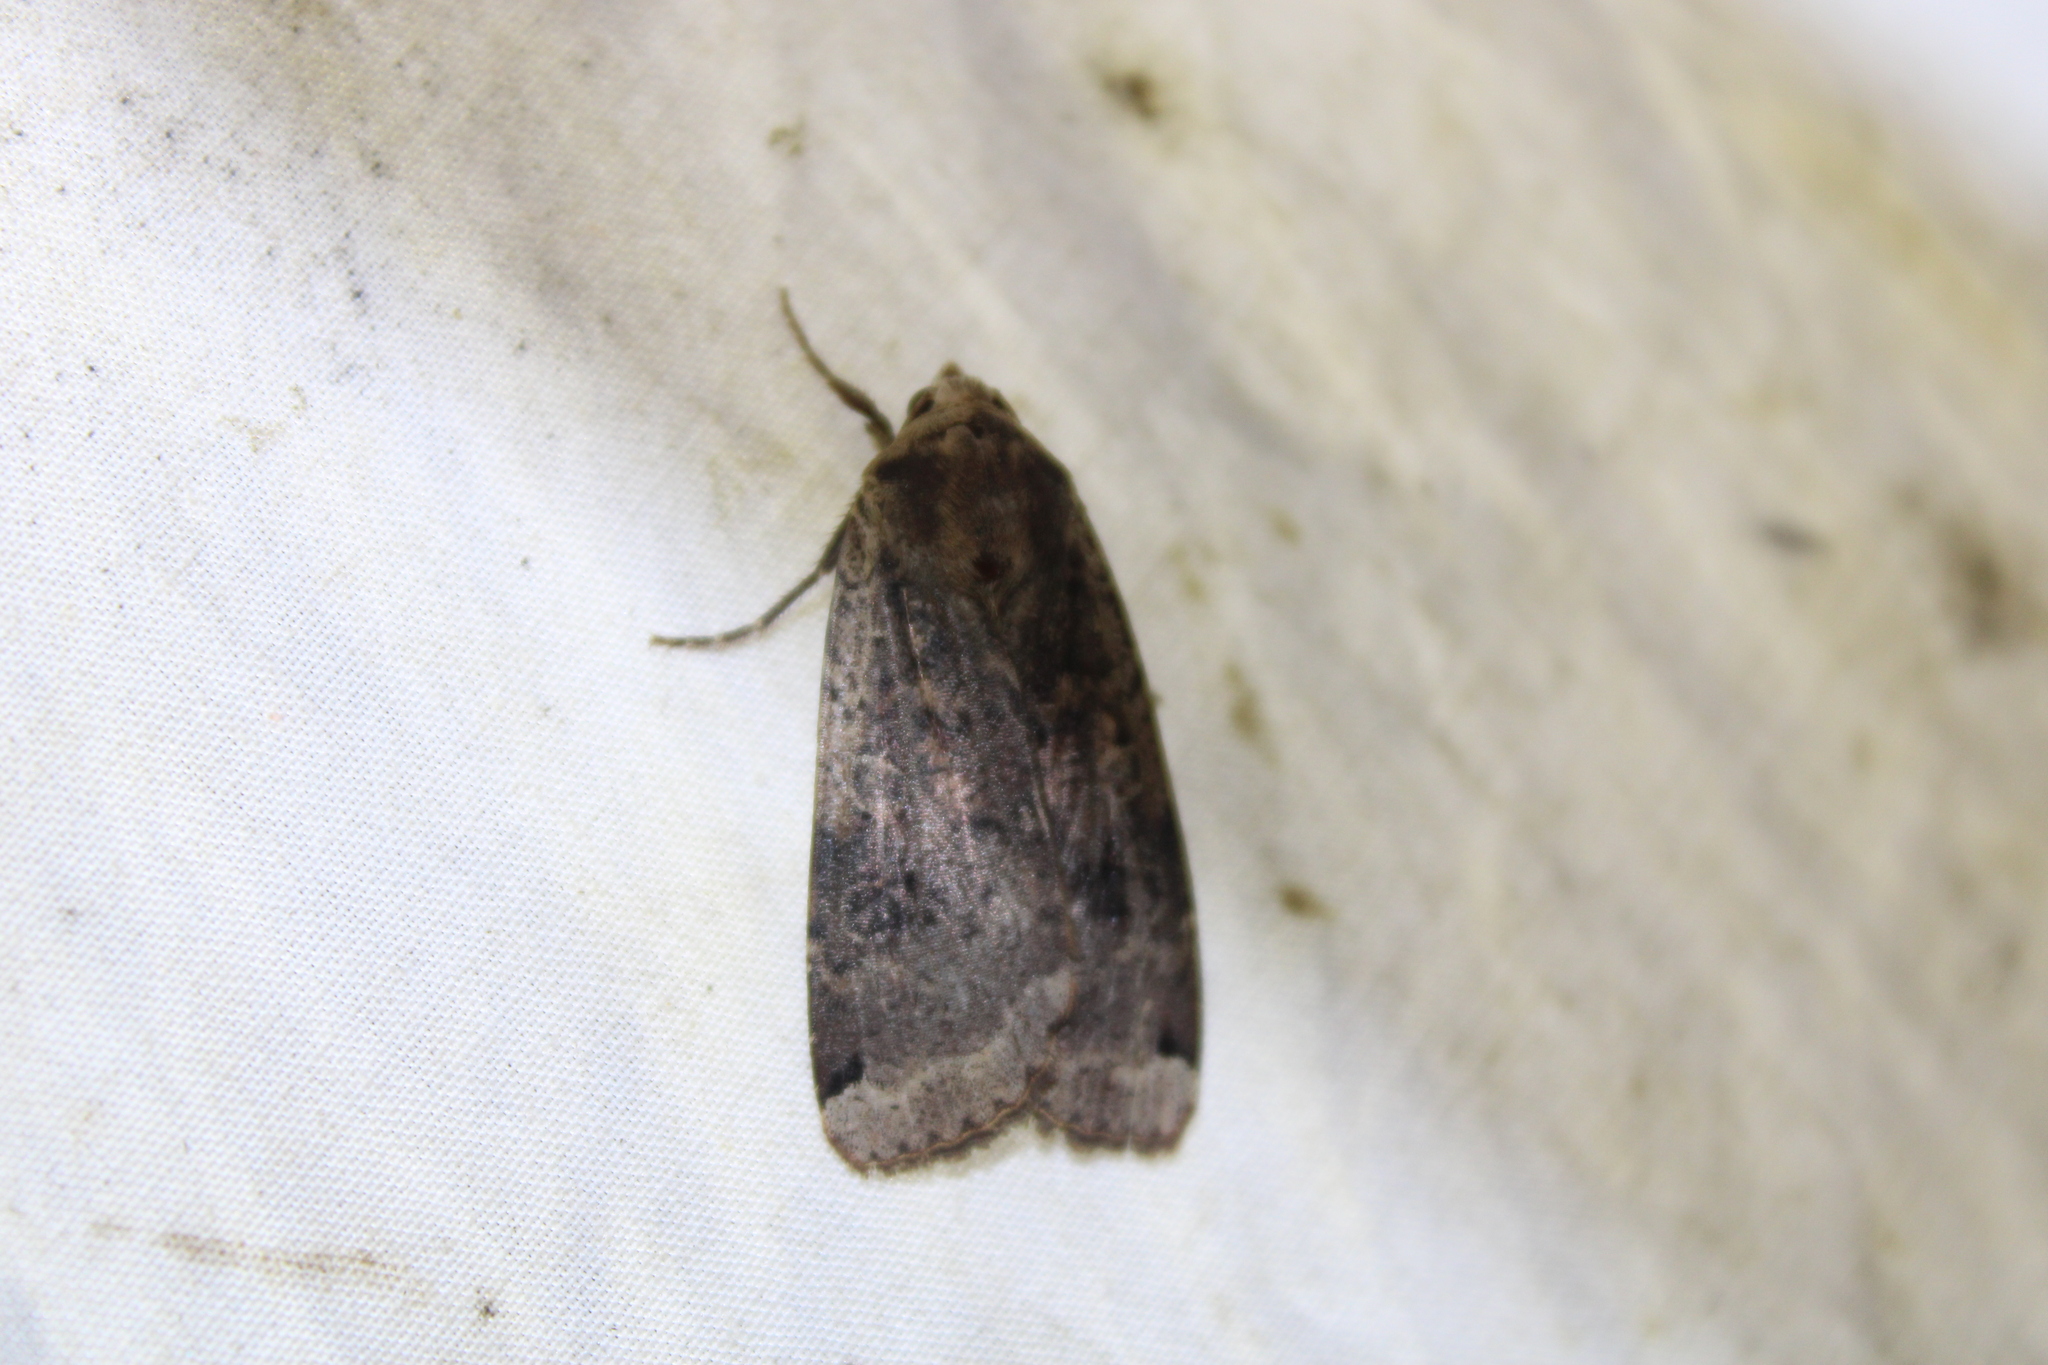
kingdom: Animalia
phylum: Arthropoda
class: Insecta
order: Lepidoptera
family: Noctuidae
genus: Noctua
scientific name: Noctua pronuba
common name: Large yellow underwing
